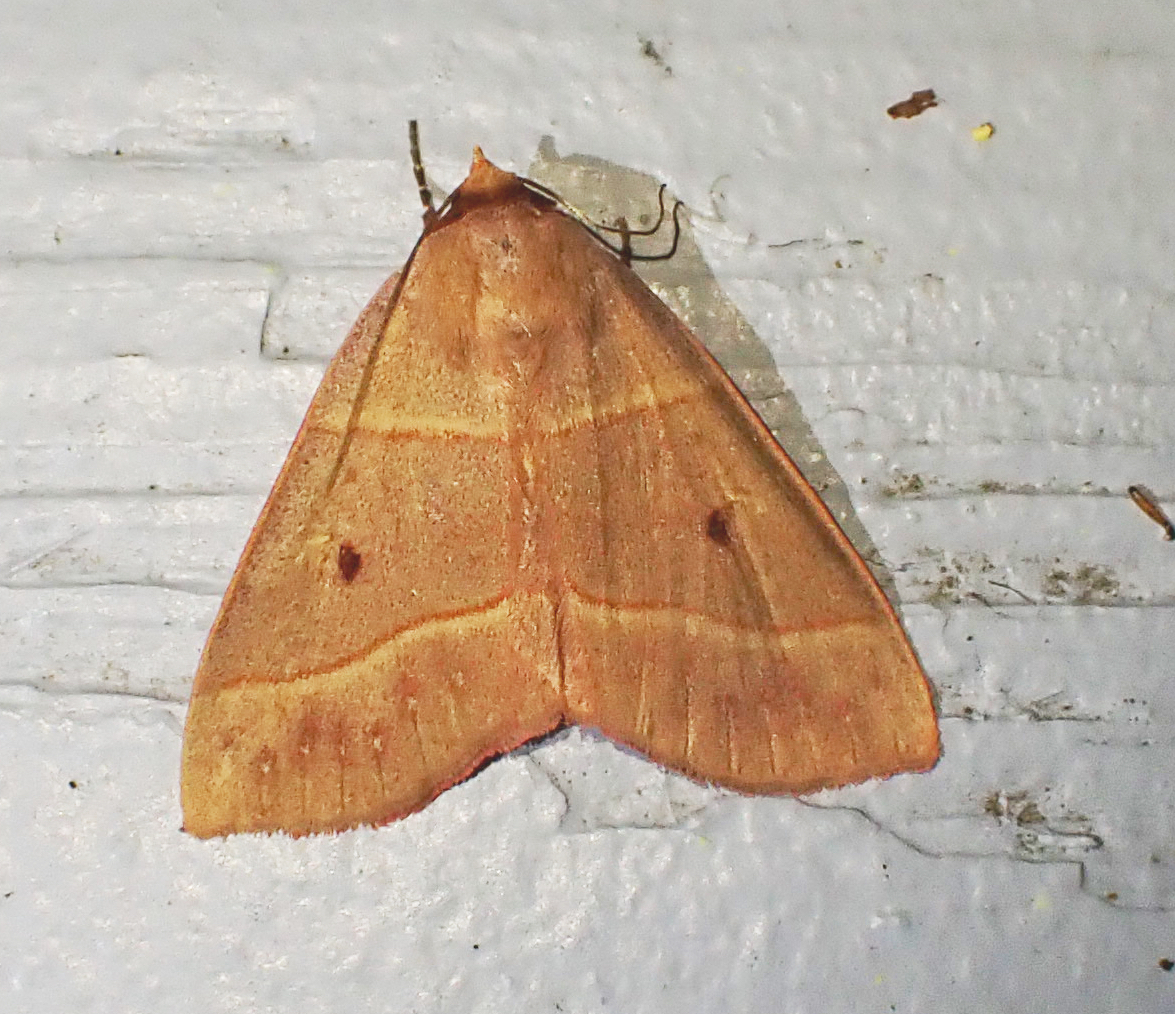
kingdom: Animalia
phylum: Arthropoda
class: Insecta
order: Lepidoptera
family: Erebidae
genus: Panopoda
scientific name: Panopoda rufimargo
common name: Red-lined panopoda moth
